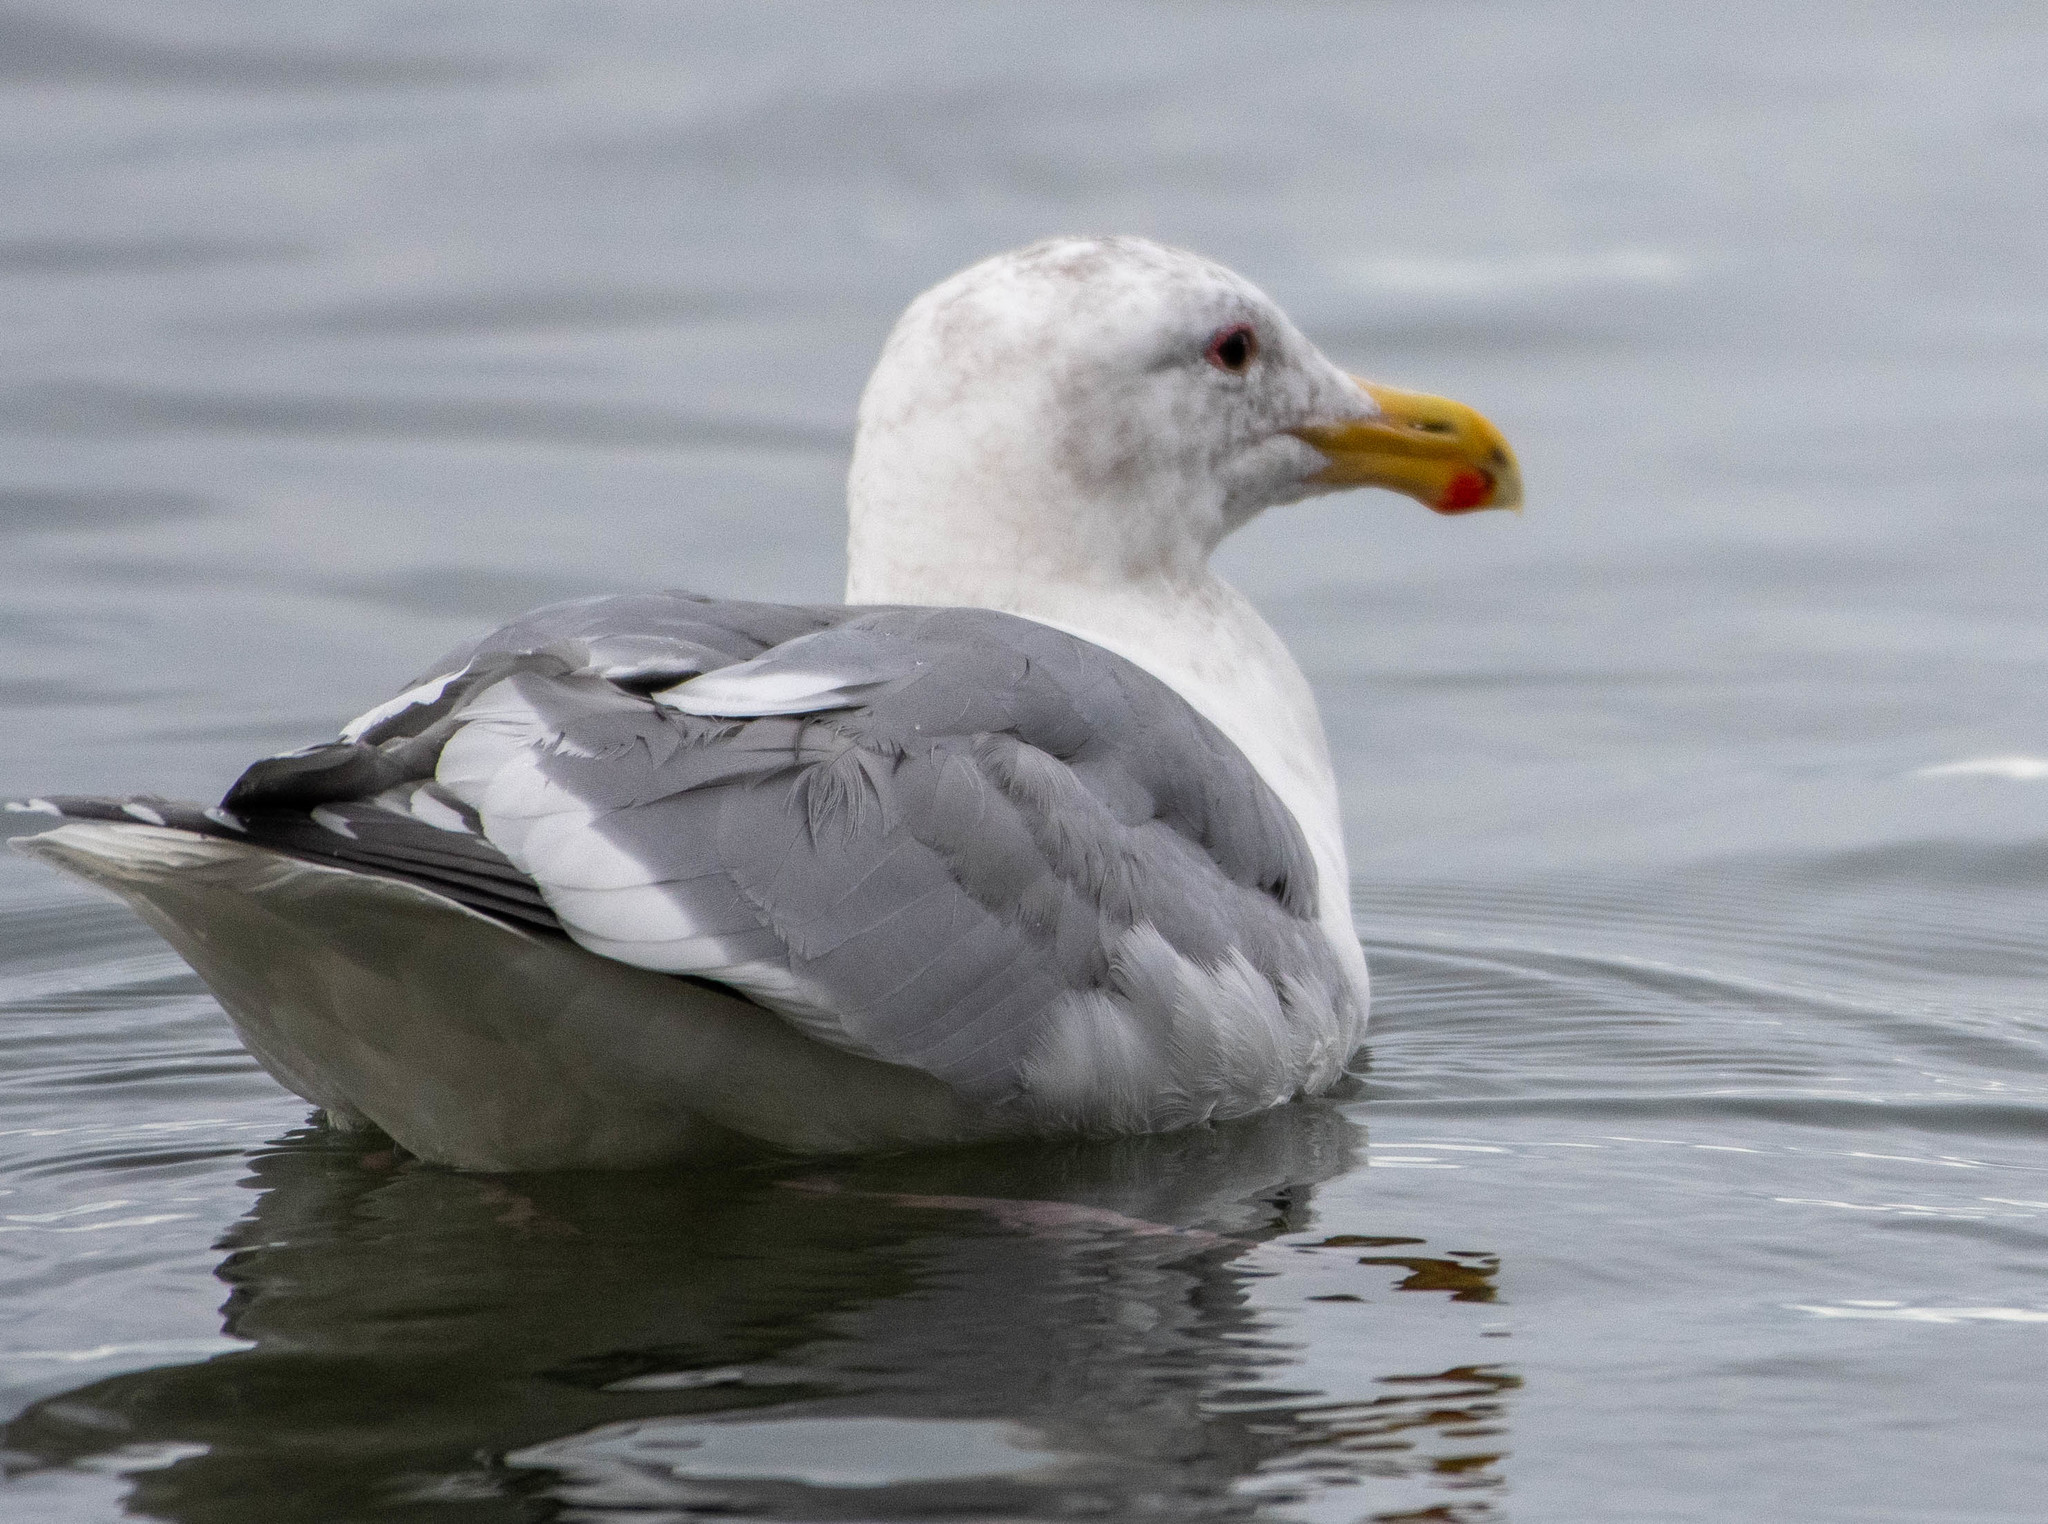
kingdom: Animalia
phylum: Chordata
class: Aves
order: Charadriiformes
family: Laridae
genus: Larus
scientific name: Larus
